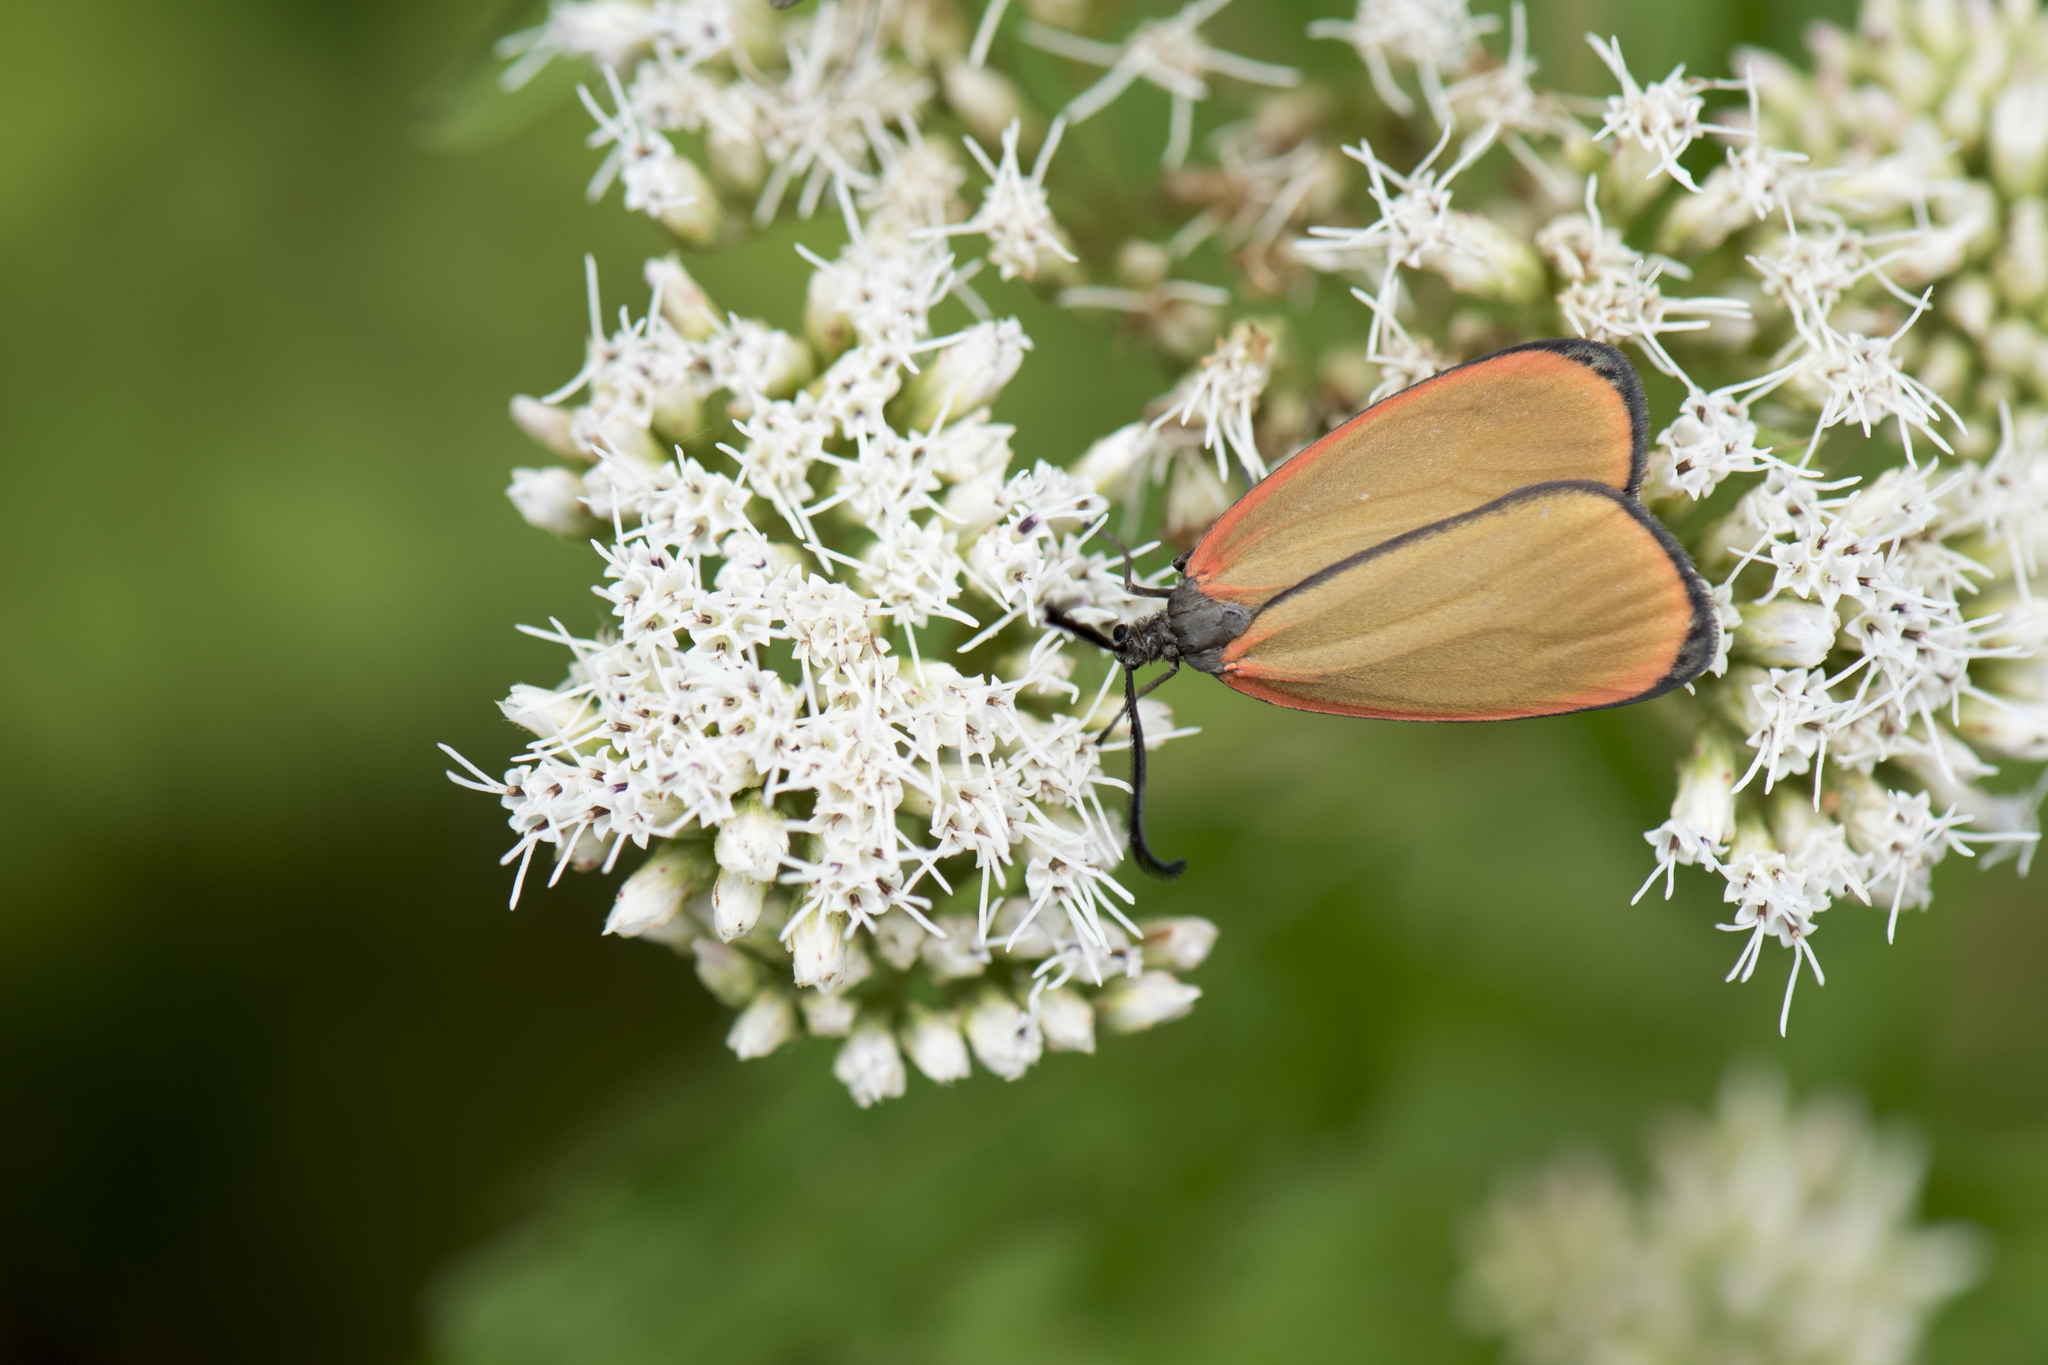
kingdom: Animalia
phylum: Arthropoda
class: Insecta
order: Lepidoptera
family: Zygaenidae
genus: Rhodopsona
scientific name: Rhodopsona marginatus
